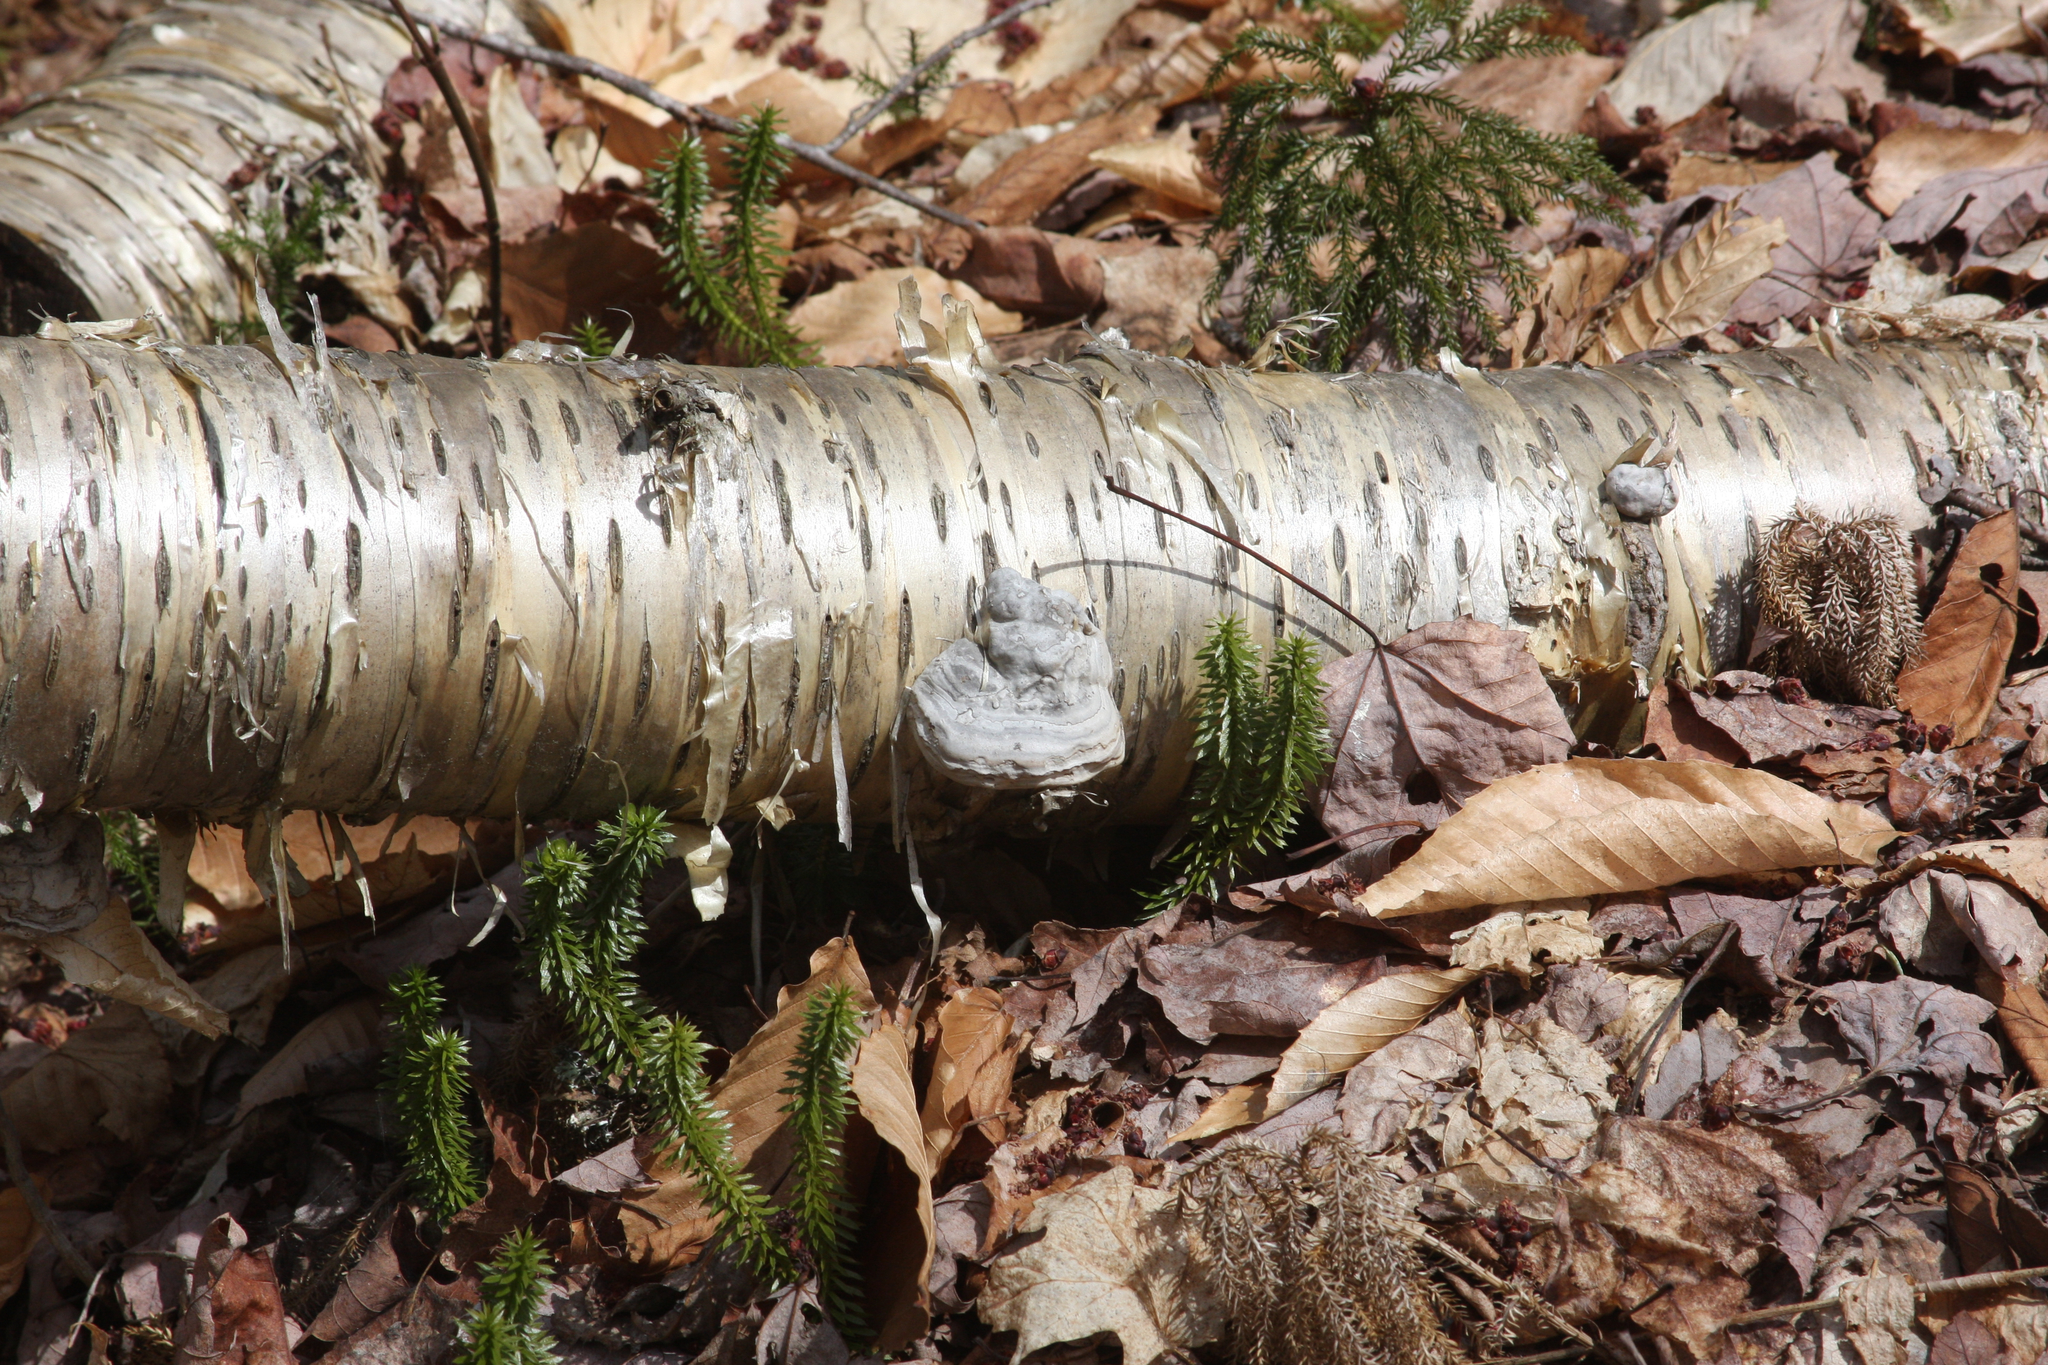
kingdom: Plantae
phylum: Tracheophyta
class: Lycopodiopsida
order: Lycopodiales
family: Lycopodiaceae
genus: Spinulum
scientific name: Spinulum annotinum
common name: Interrupted club-moss
